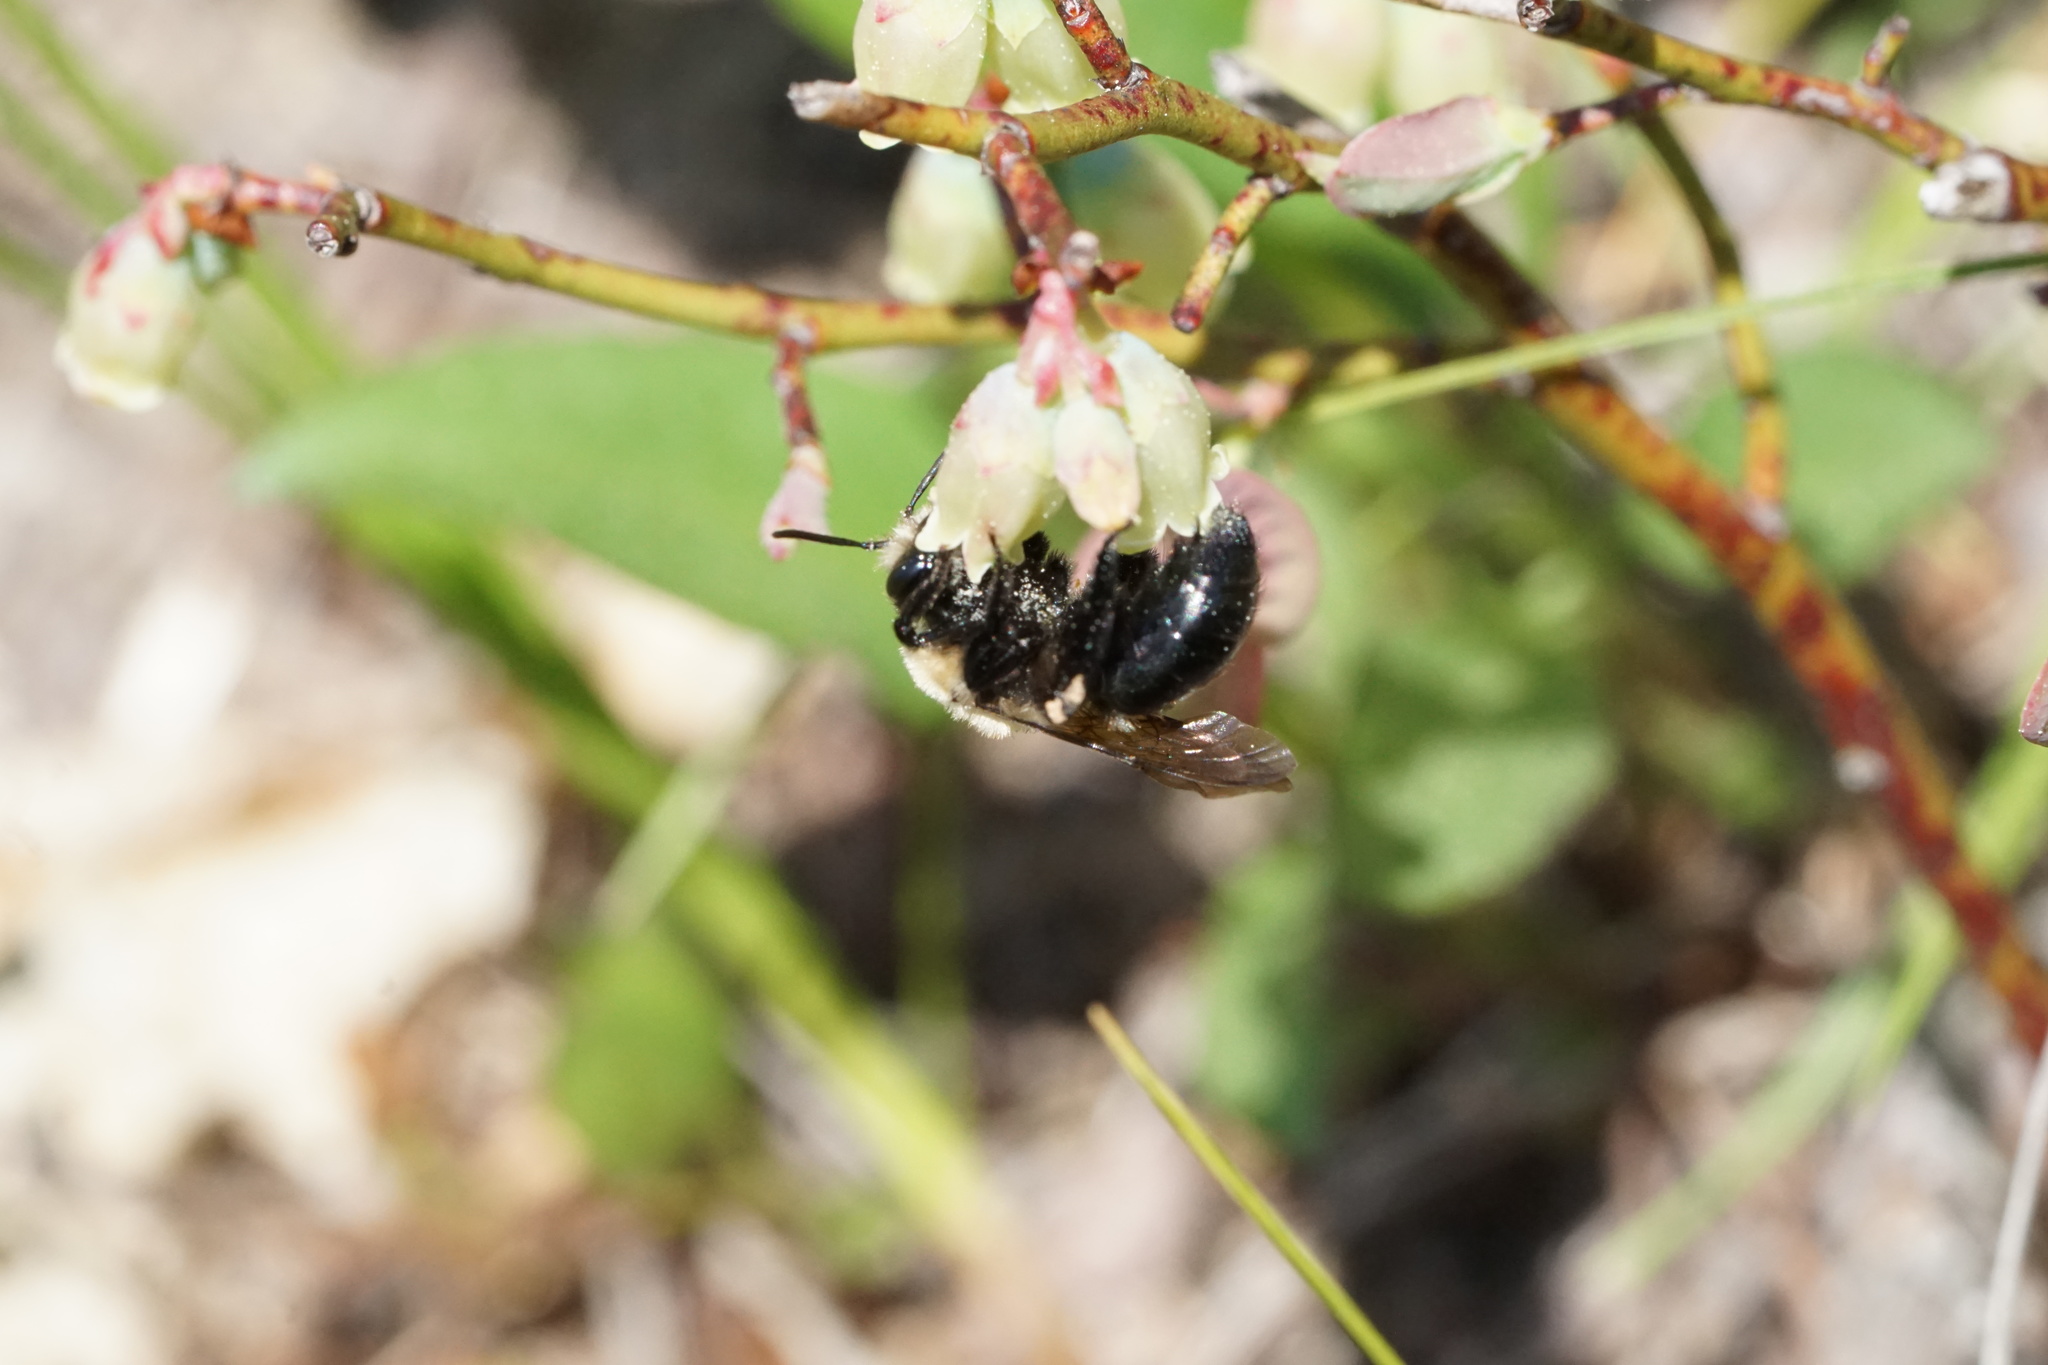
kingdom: Animalia
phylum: Arthropoda
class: Insecta
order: Hymenoptera
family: Andrenidae
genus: Andrena
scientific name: Andrena carlini
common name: Carlin's mining bee
